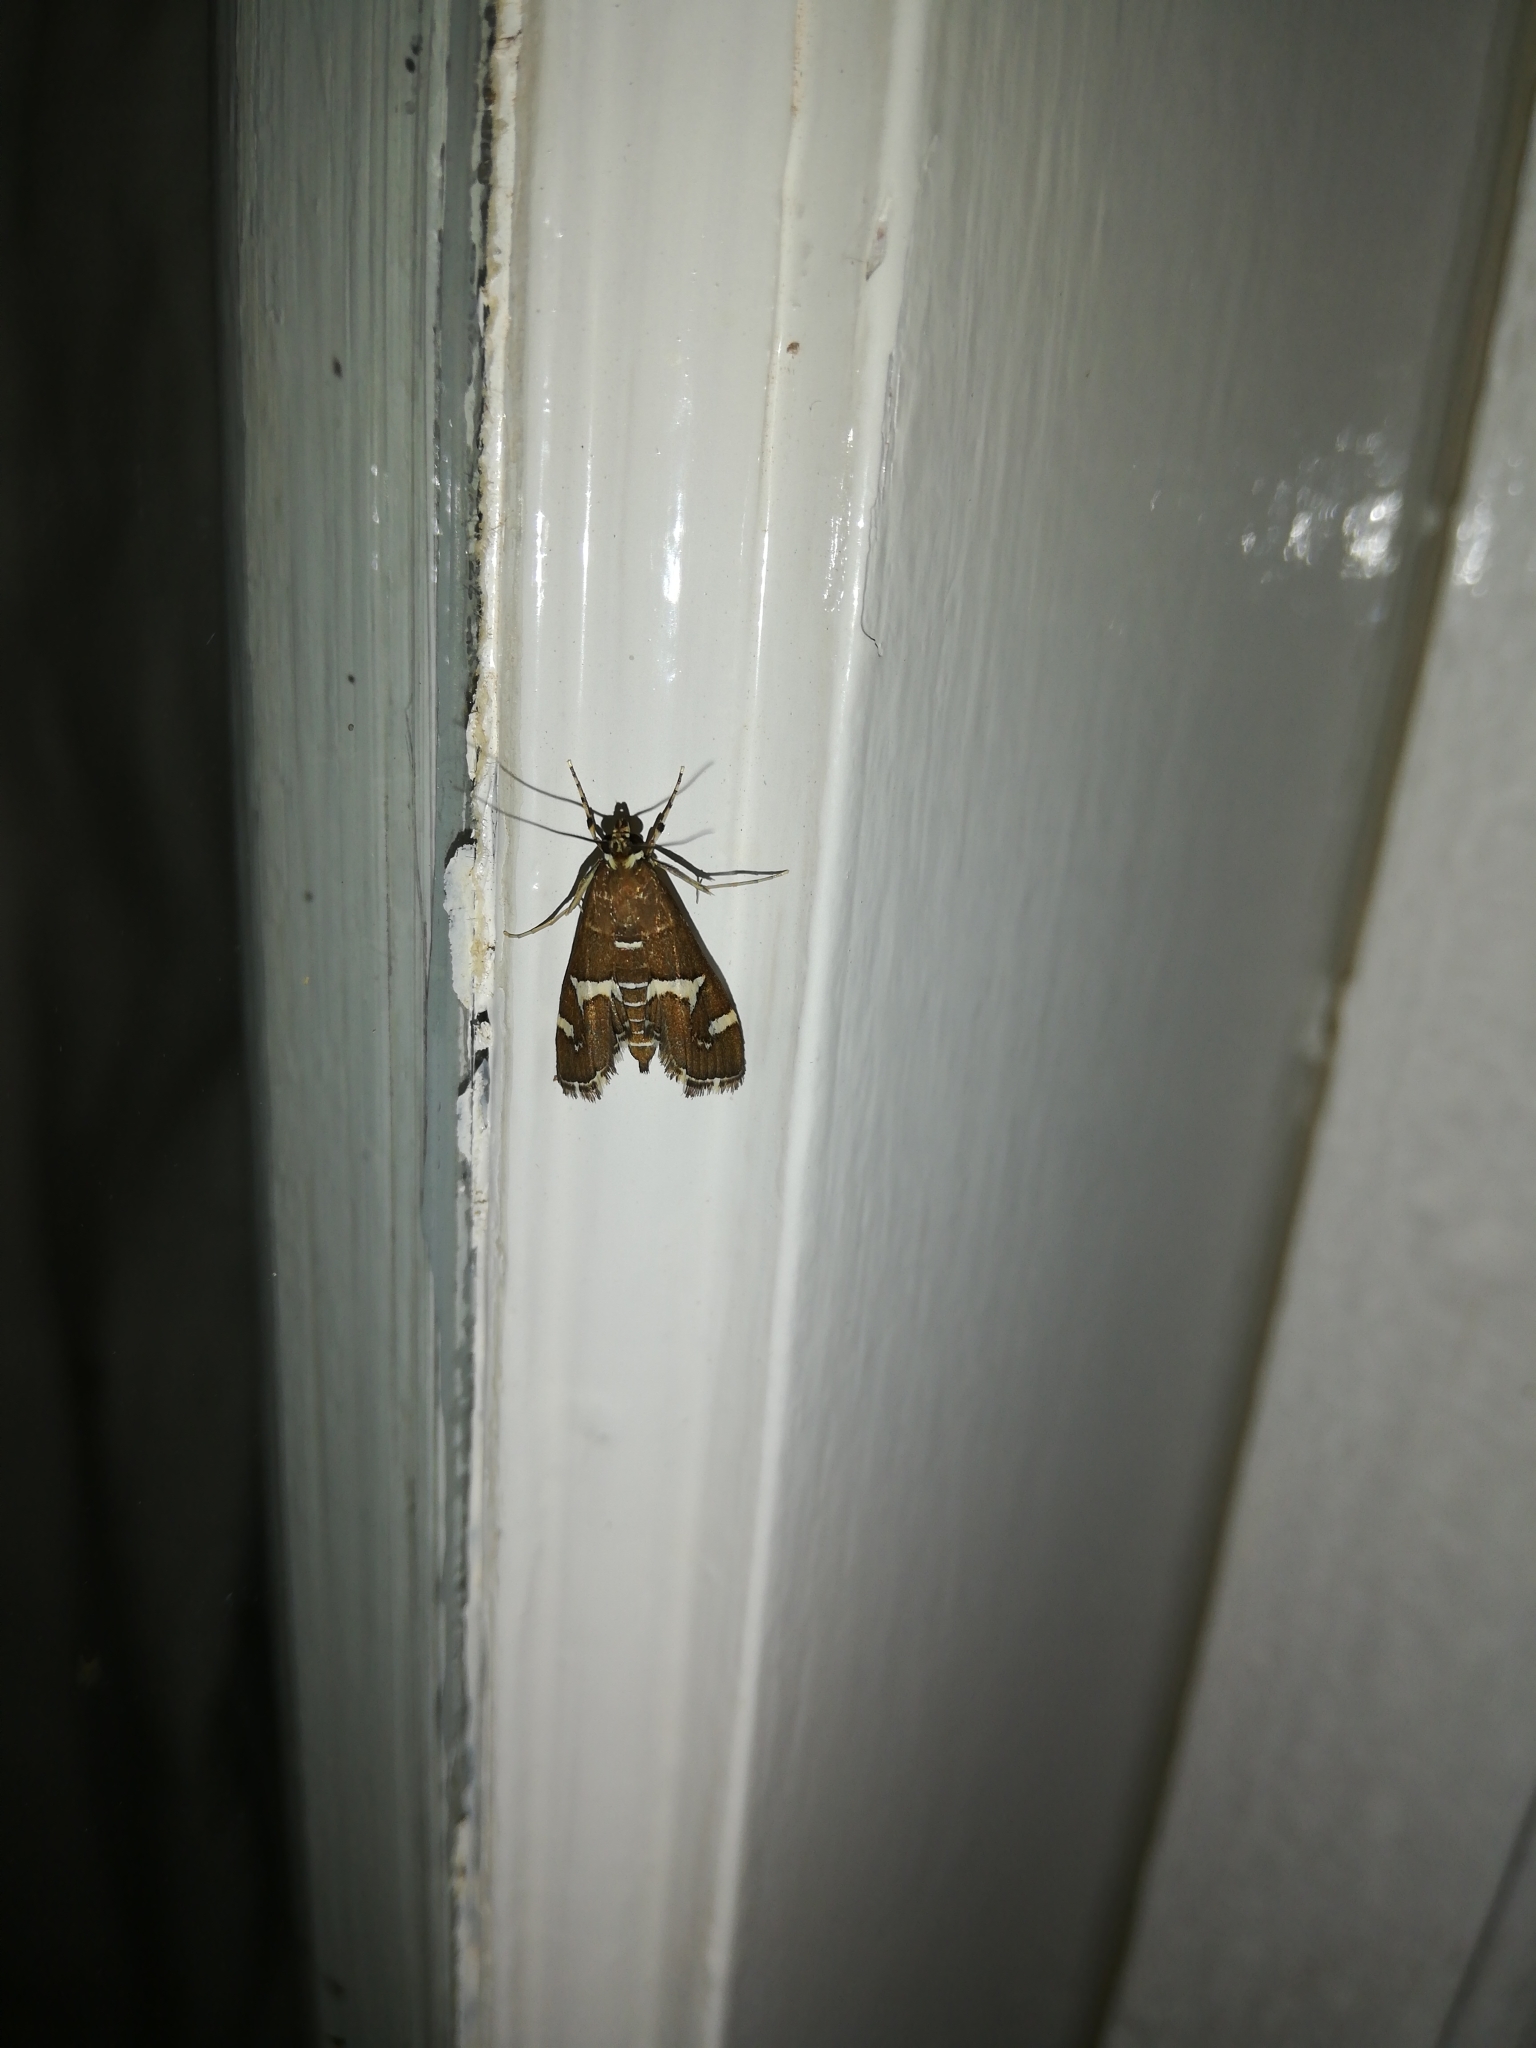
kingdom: Animalia
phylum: Arthropoda
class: Insecta
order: Lepidoptera
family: Crambidae
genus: Spoladea
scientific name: Spoladea recurvalis
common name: Beet webworm moth
